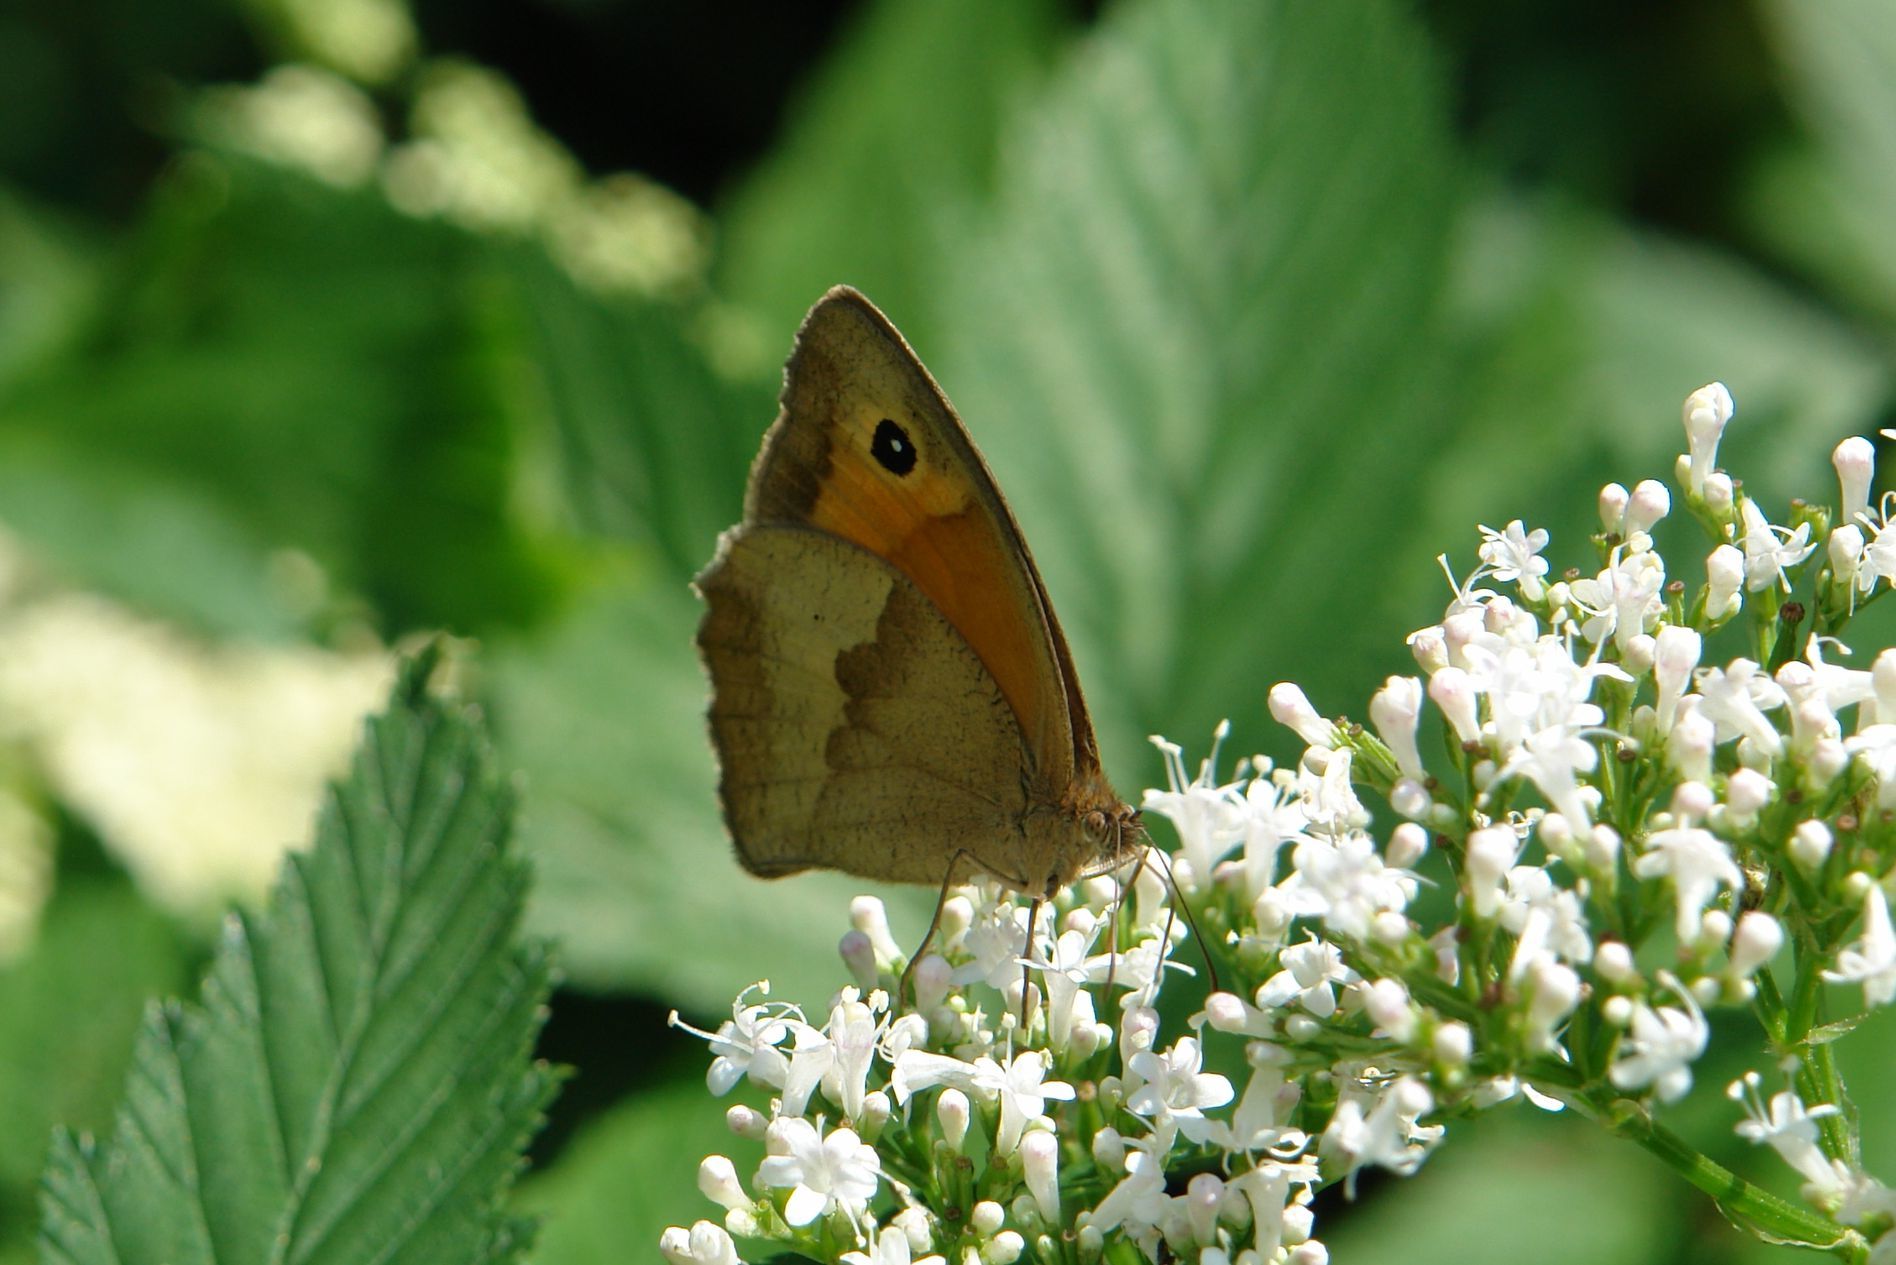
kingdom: Animalia
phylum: Arthropoda
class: Insecta
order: Lepidoptera
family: Nymphalidae
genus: Maniola
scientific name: Maniola jurtina
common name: Meadow brown
